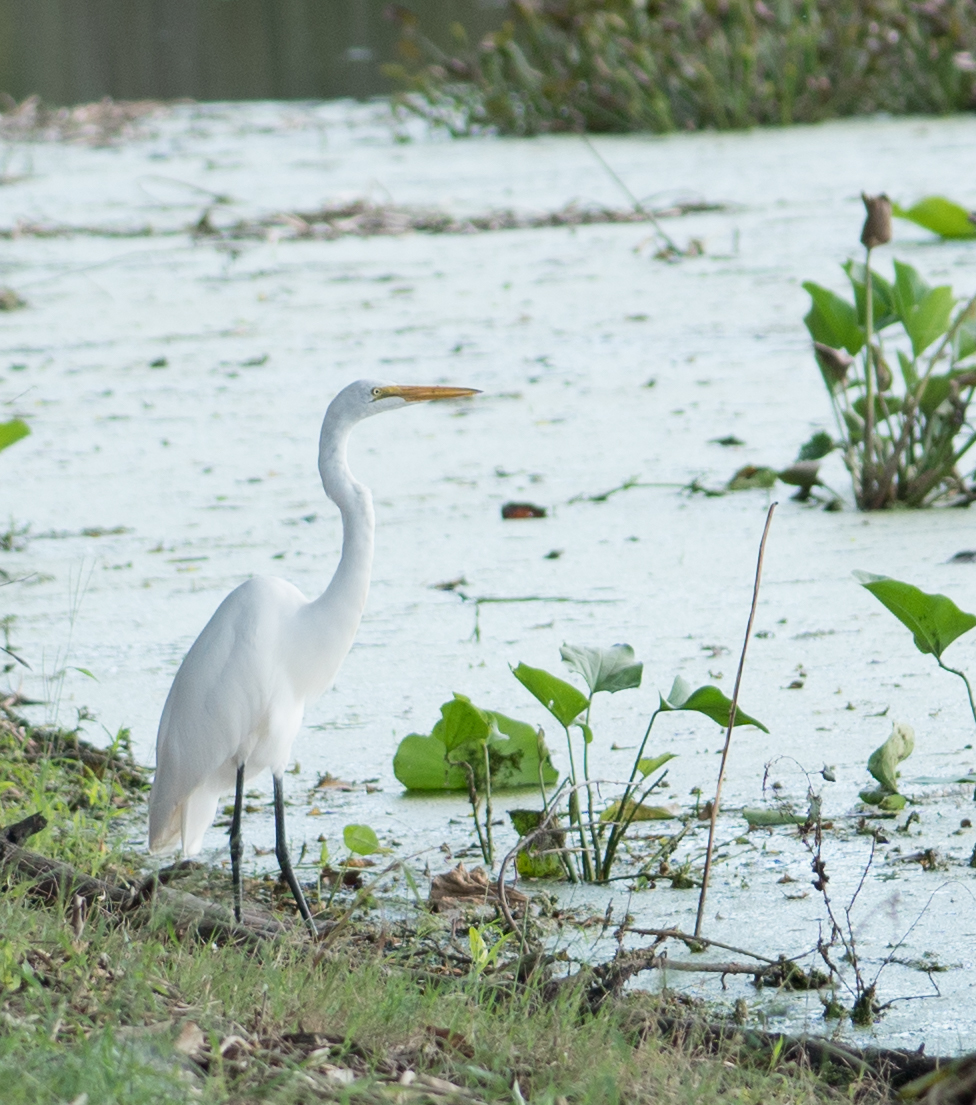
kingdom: Animalia
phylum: Chordata
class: Aves
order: Pelecaniformes
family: Ardeidae
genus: Ardea
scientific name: Ardea alba
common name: Great egret
